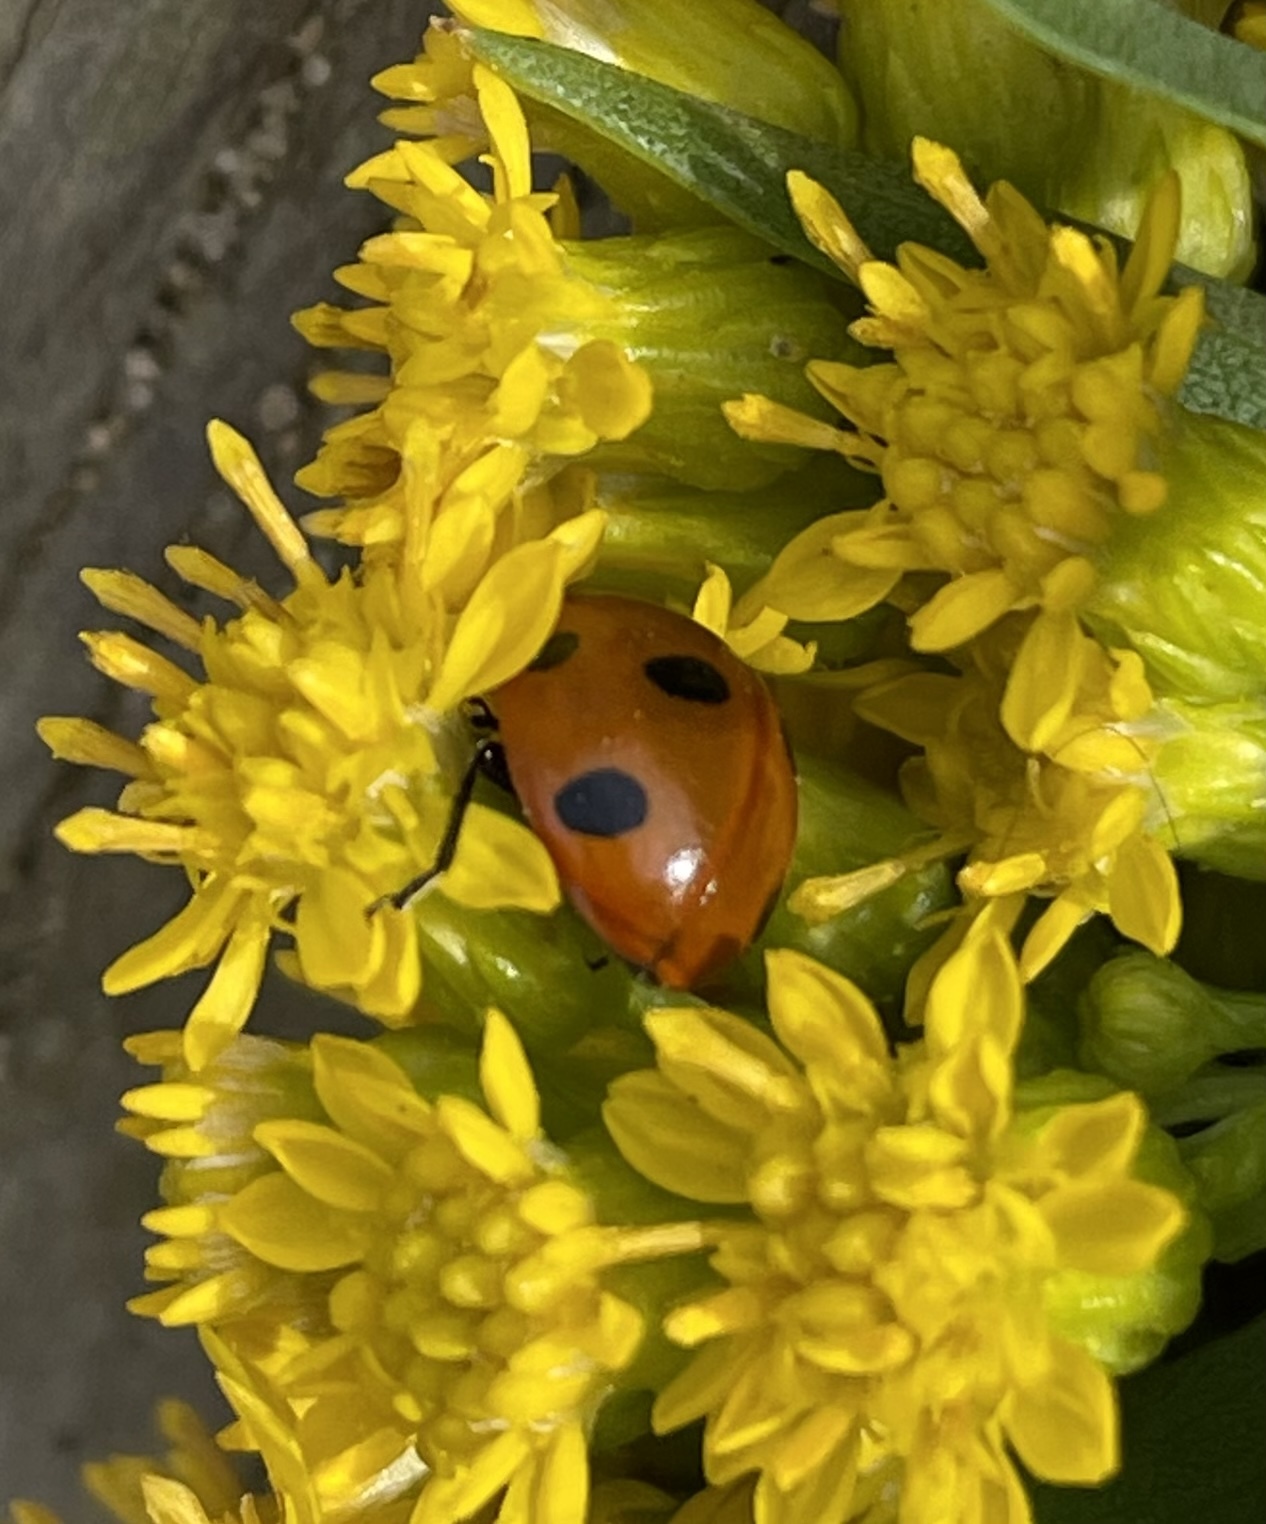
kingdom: Animalia
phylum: Arthropoda
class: Insecta
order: Coleoptera
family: Coccinellidae
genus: Coccinella
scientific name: Coccinella septempunctata
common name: Sevenspotted lady beetle
